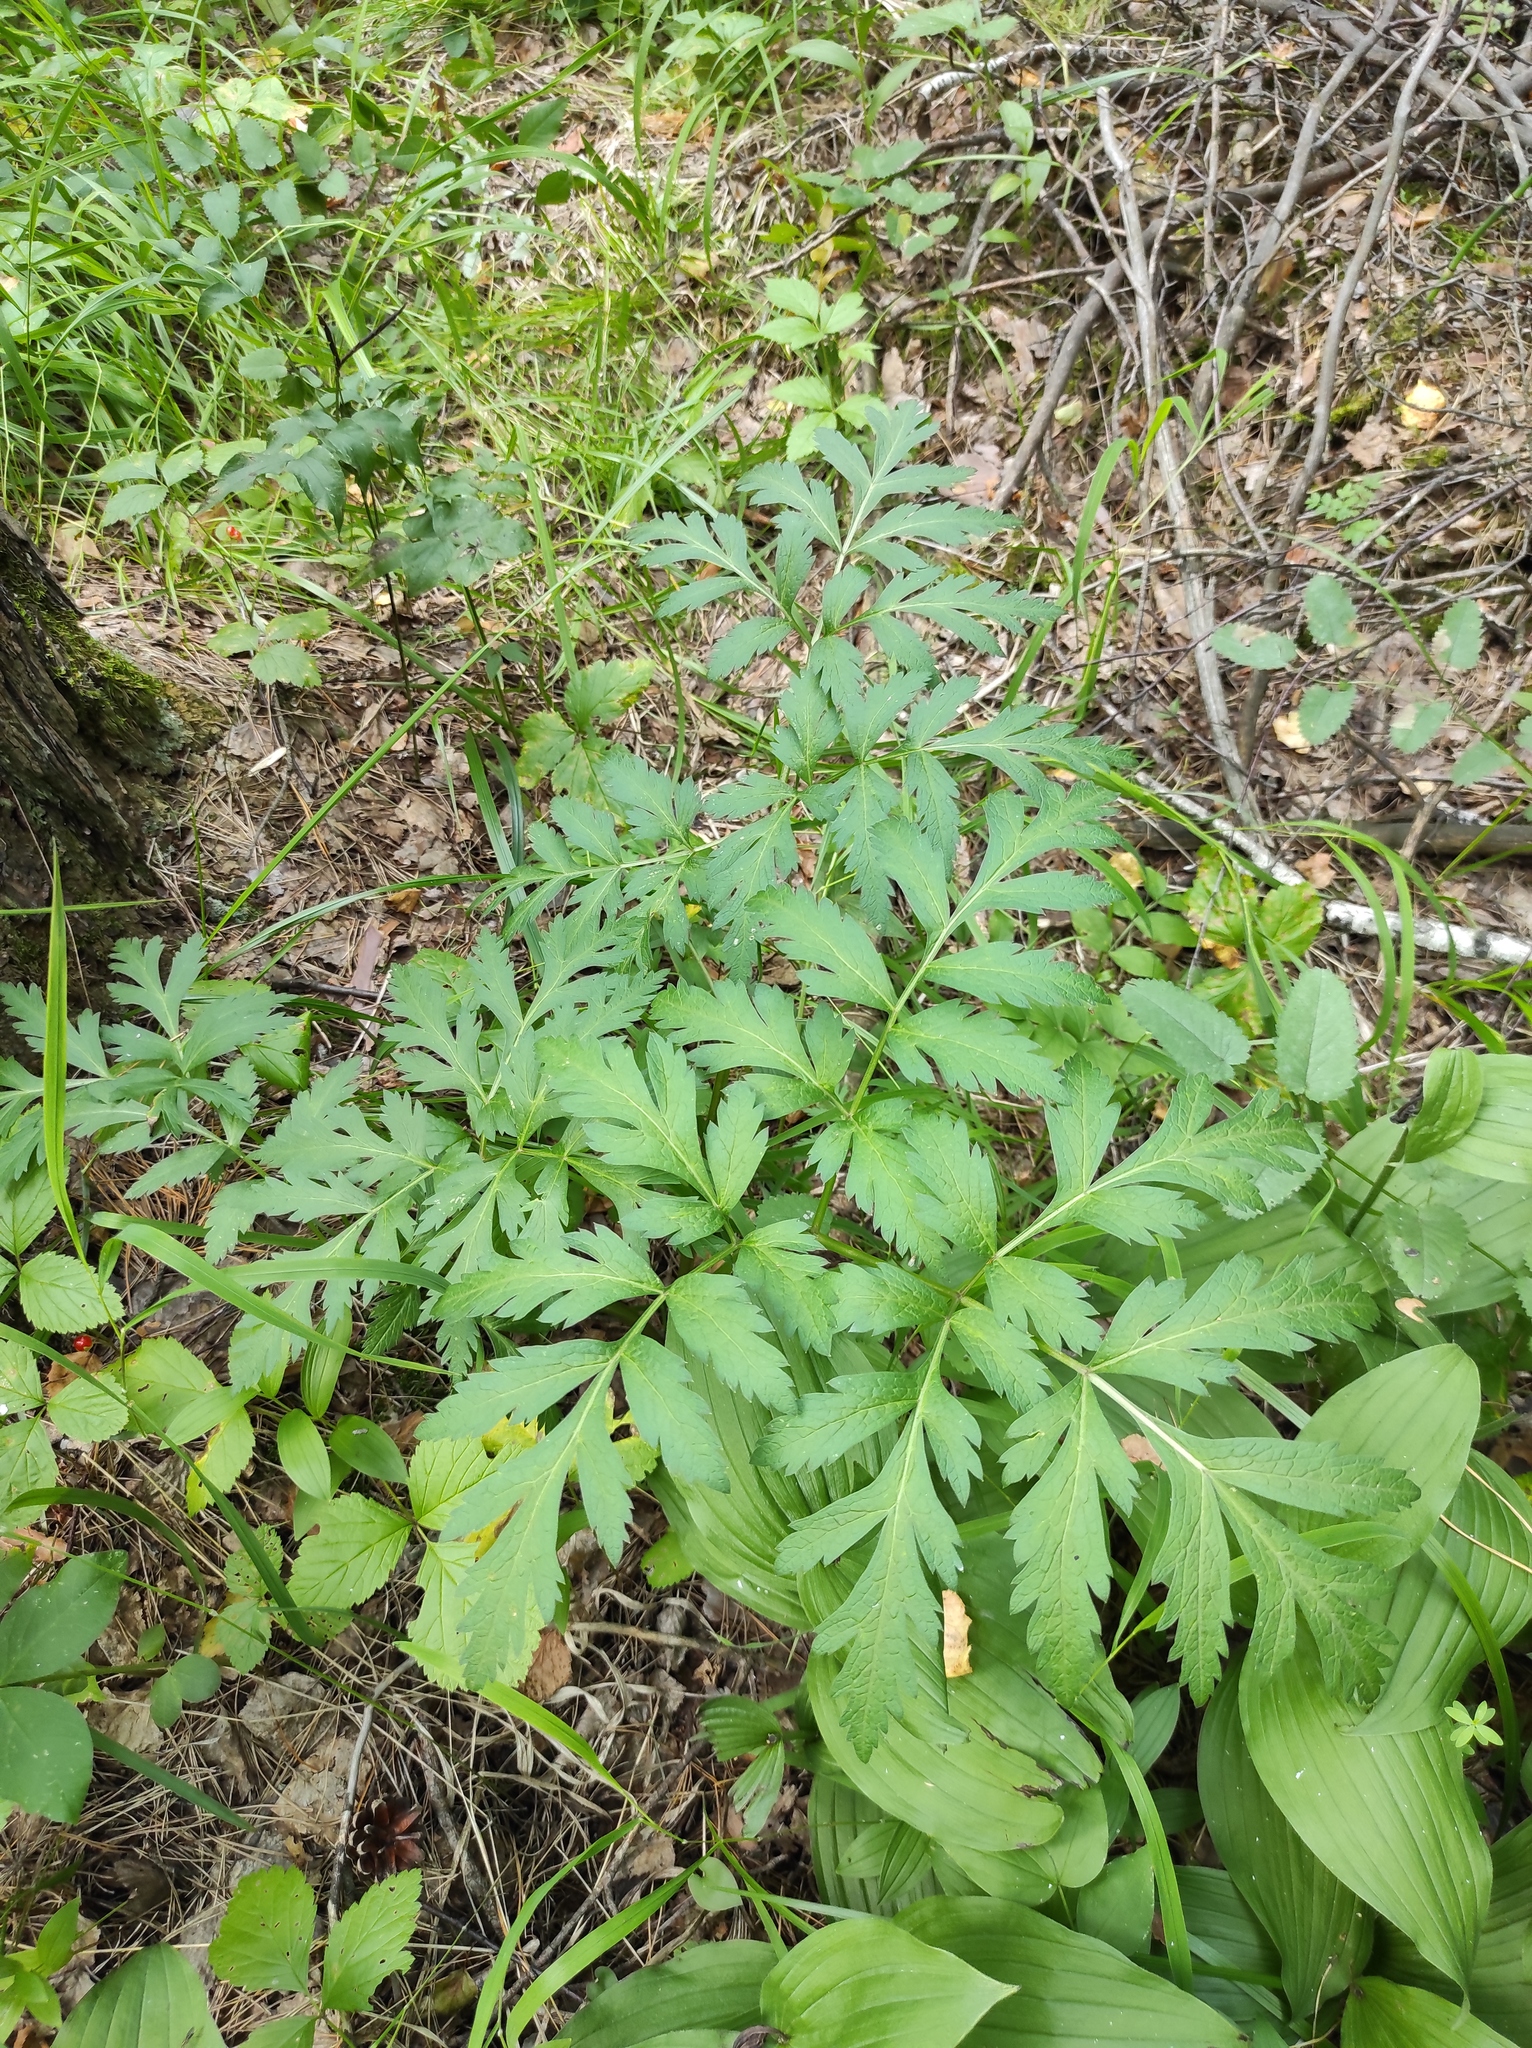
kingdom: Plantae
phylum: Tracheophyta
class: Magnoliopsida
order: Apiales
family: Apiaceae
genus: Pleurospermum
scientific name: Pleurospermum uralense
